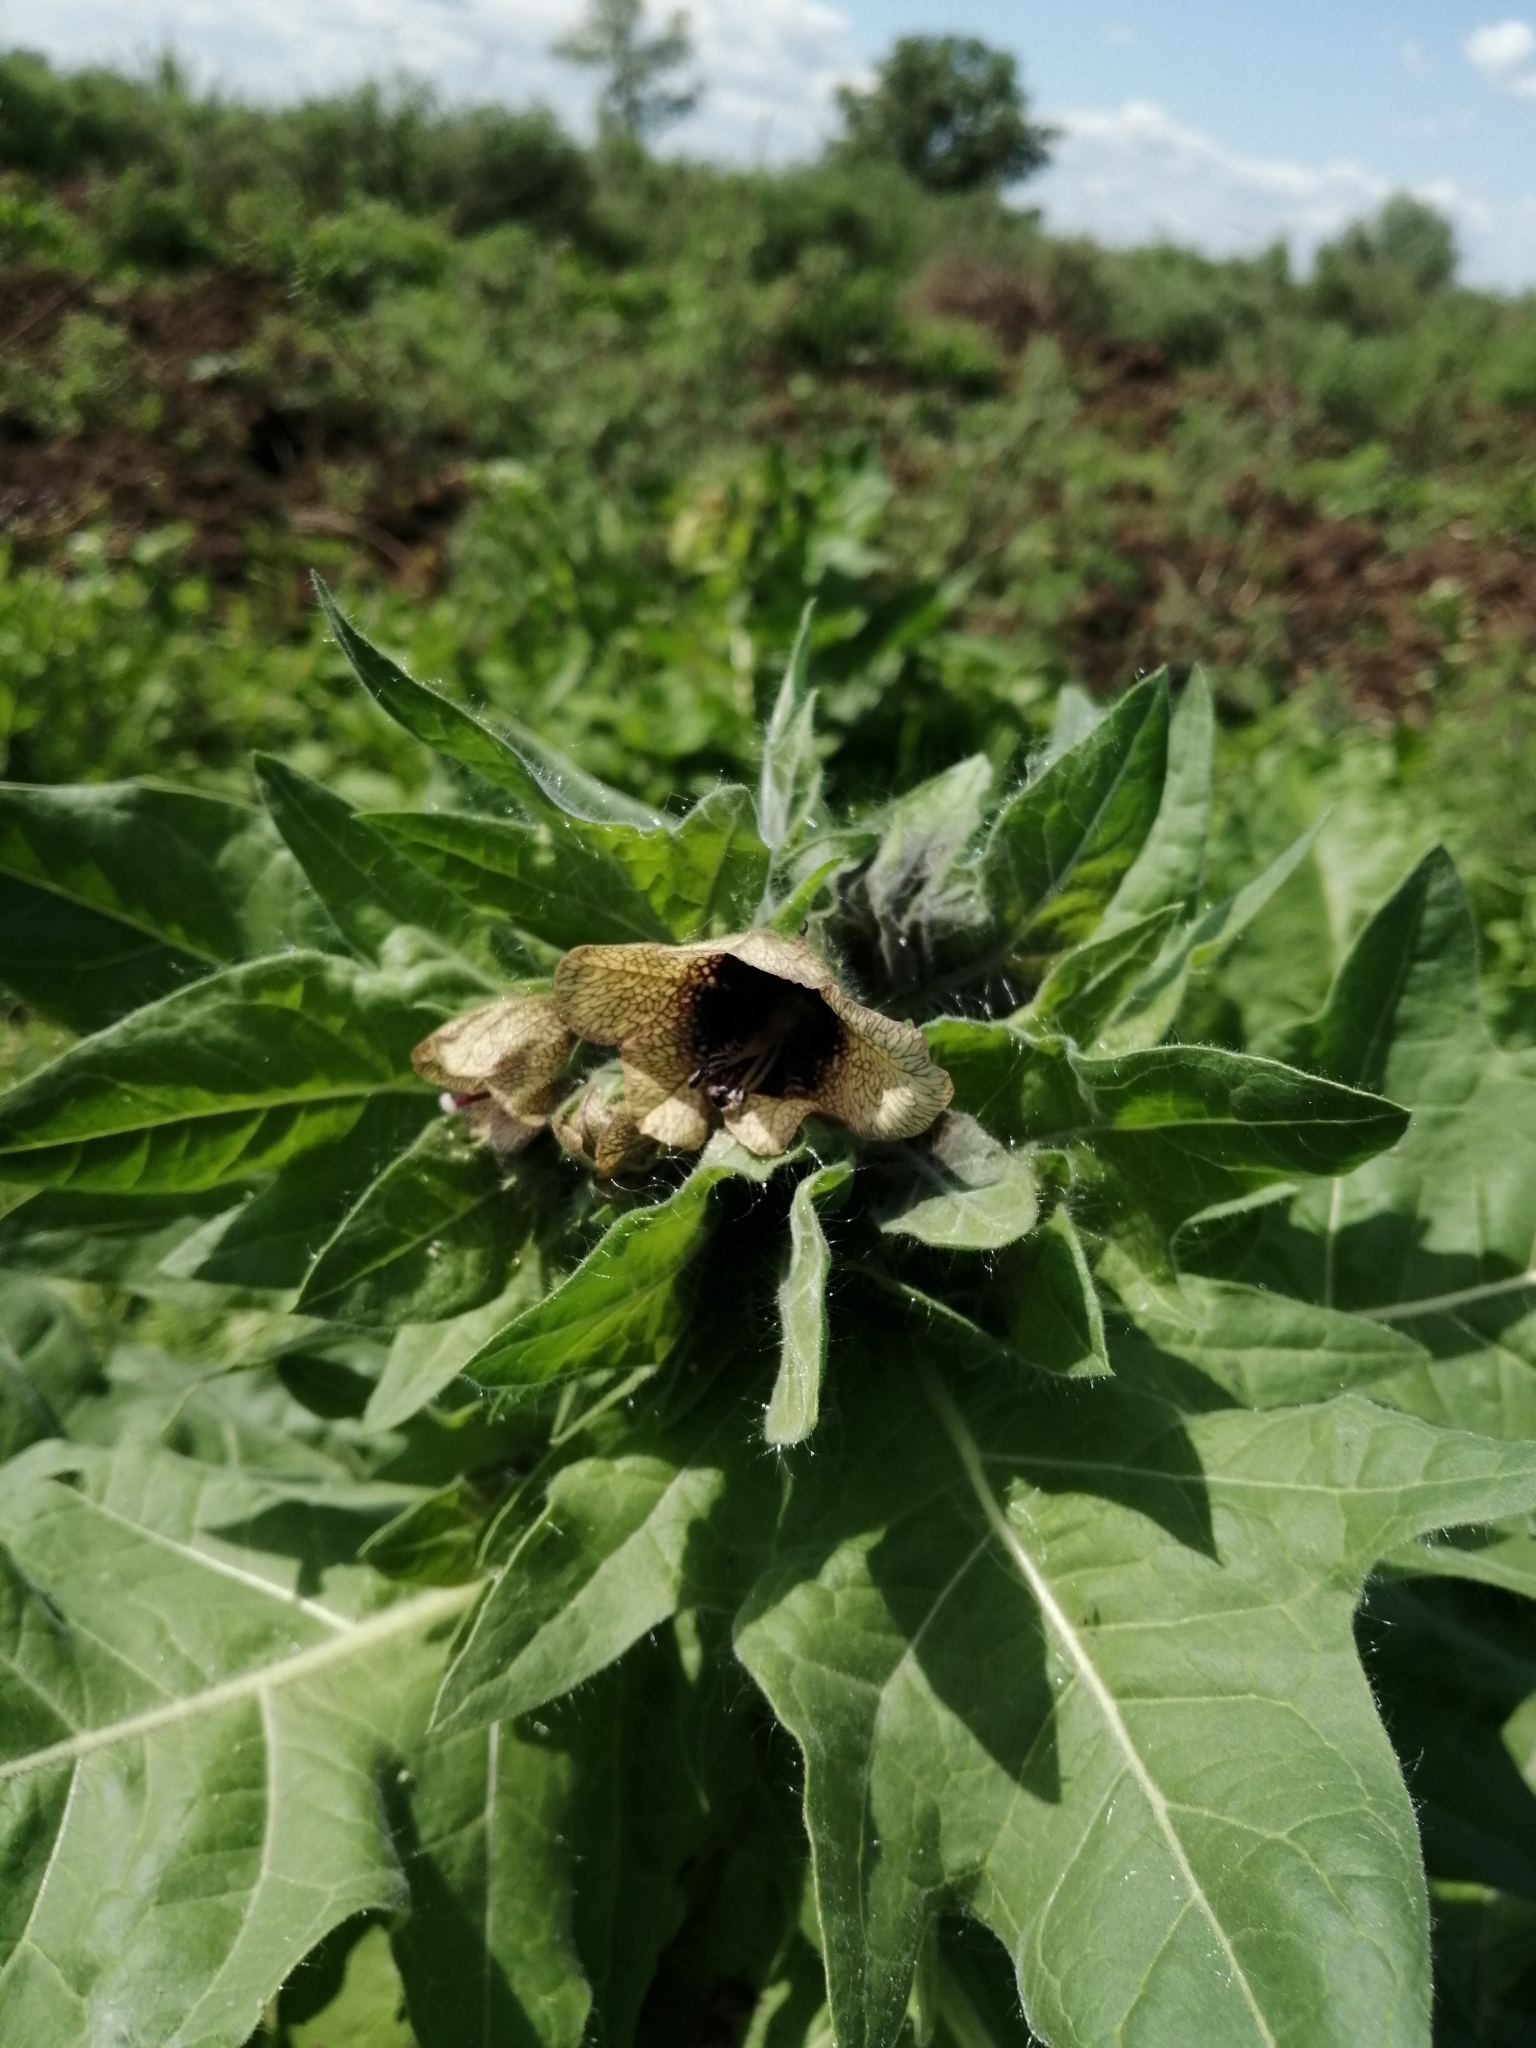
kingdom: Plantae
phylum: Tracheophyta
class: Magnoliopsida
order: Solanales
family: Solanaceae
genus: Hyoscyamus
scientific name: Hyoscyamus niger
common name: Henbane
